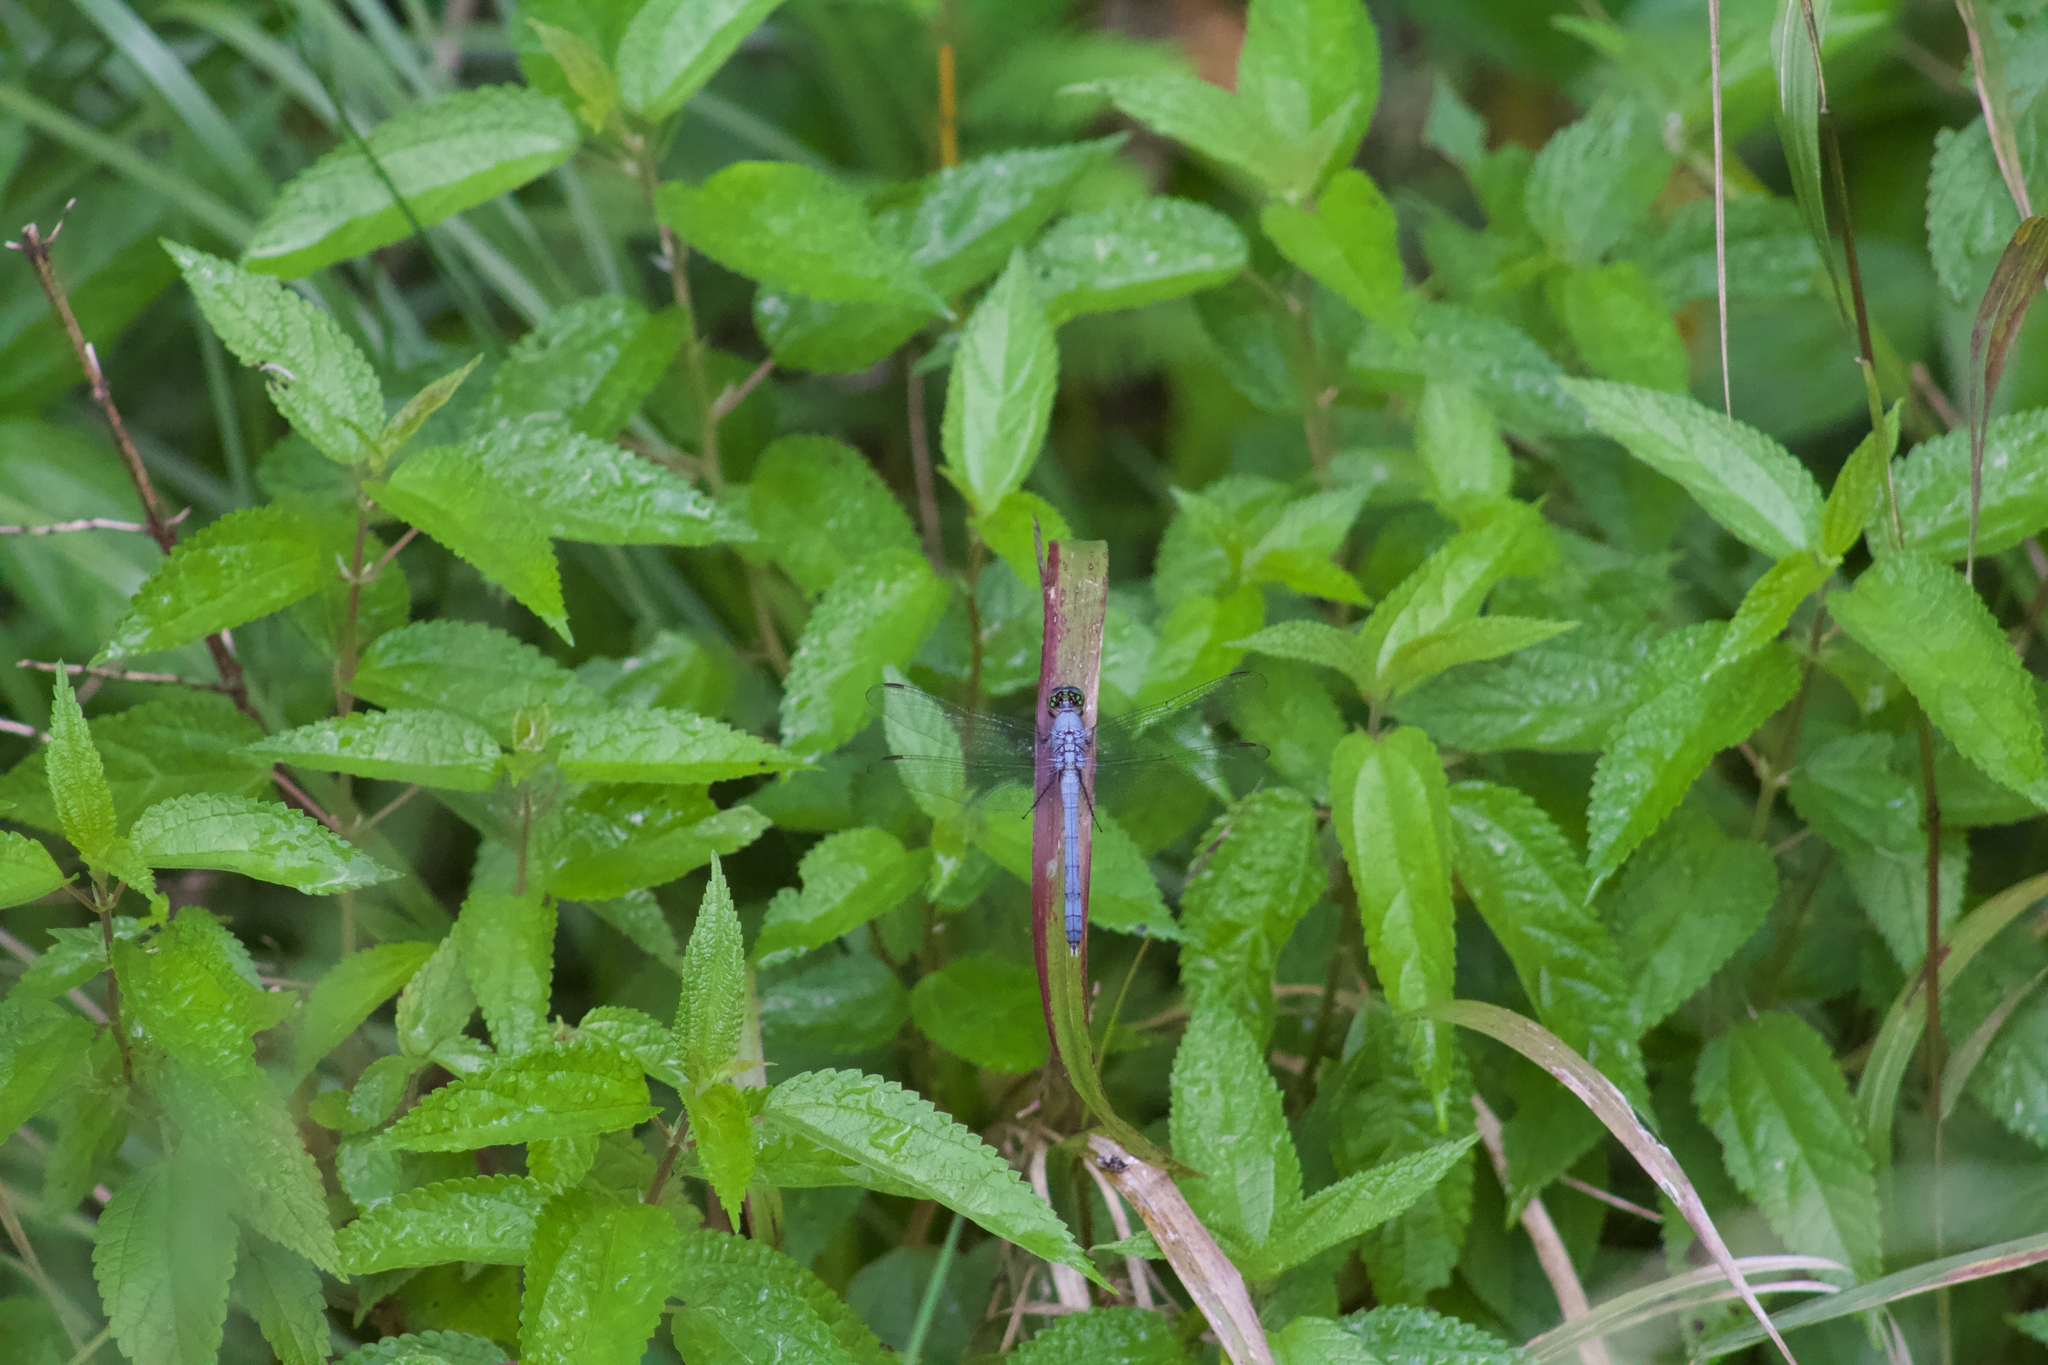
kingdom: Animalia
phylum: Arthropoda
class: Insecta
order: Odonata
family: Libellulidae
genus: Erythemis
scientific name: Erythemis simplicicollis
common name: Eastern pondhawk
